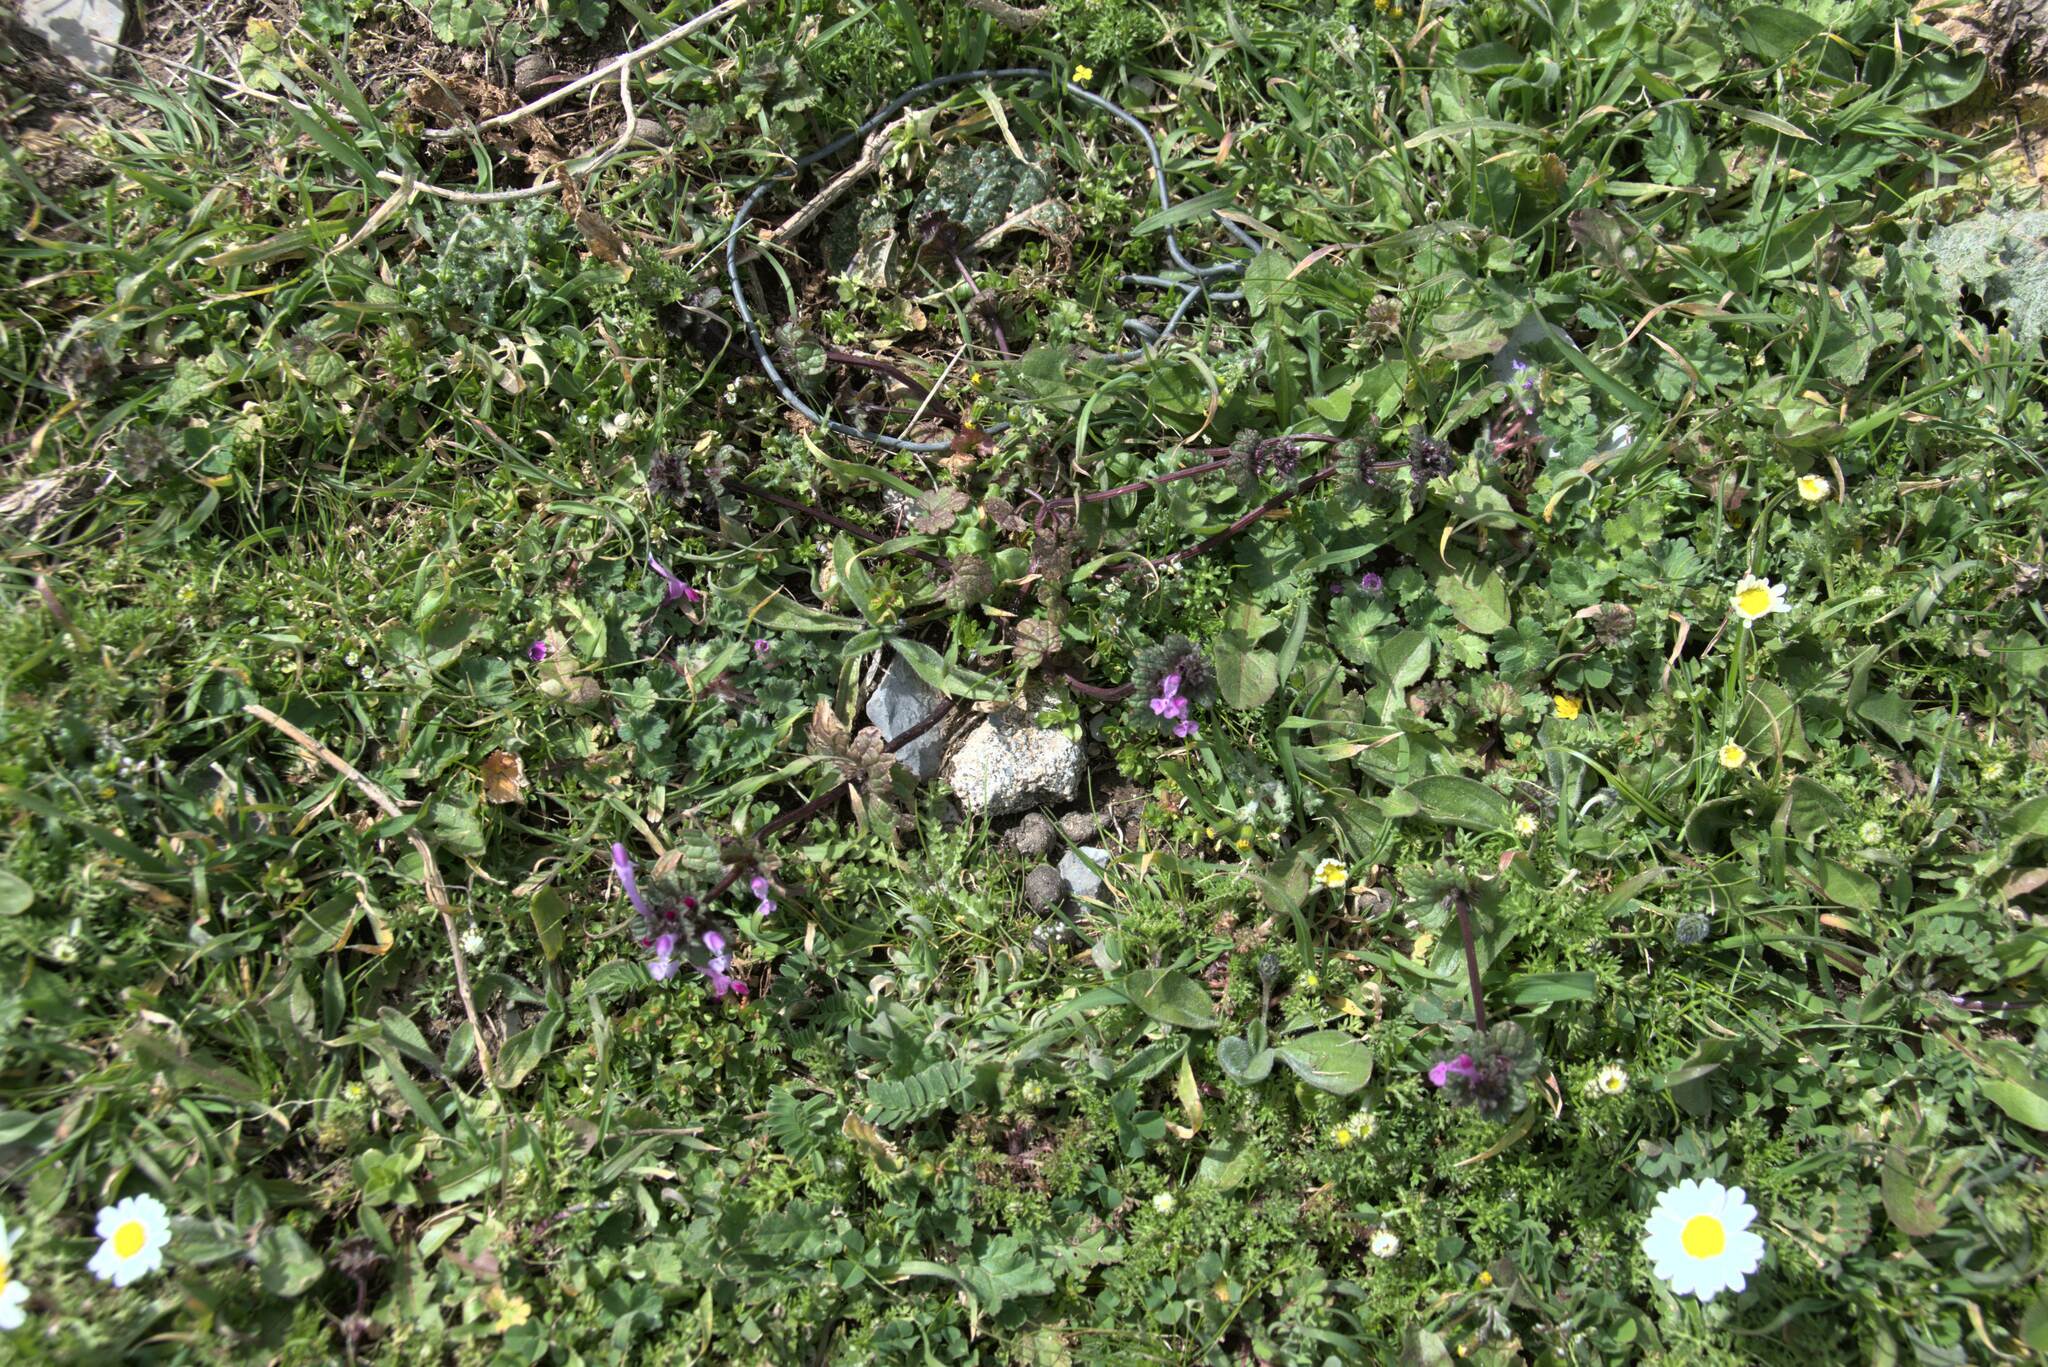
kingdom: Plantae
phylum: Tracheophyta
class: Magnoliopsida
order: Lamiales
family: Lamiaceae
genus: Lamium
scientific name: Lamium amplexicaule
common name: Henbit dead-nettle
